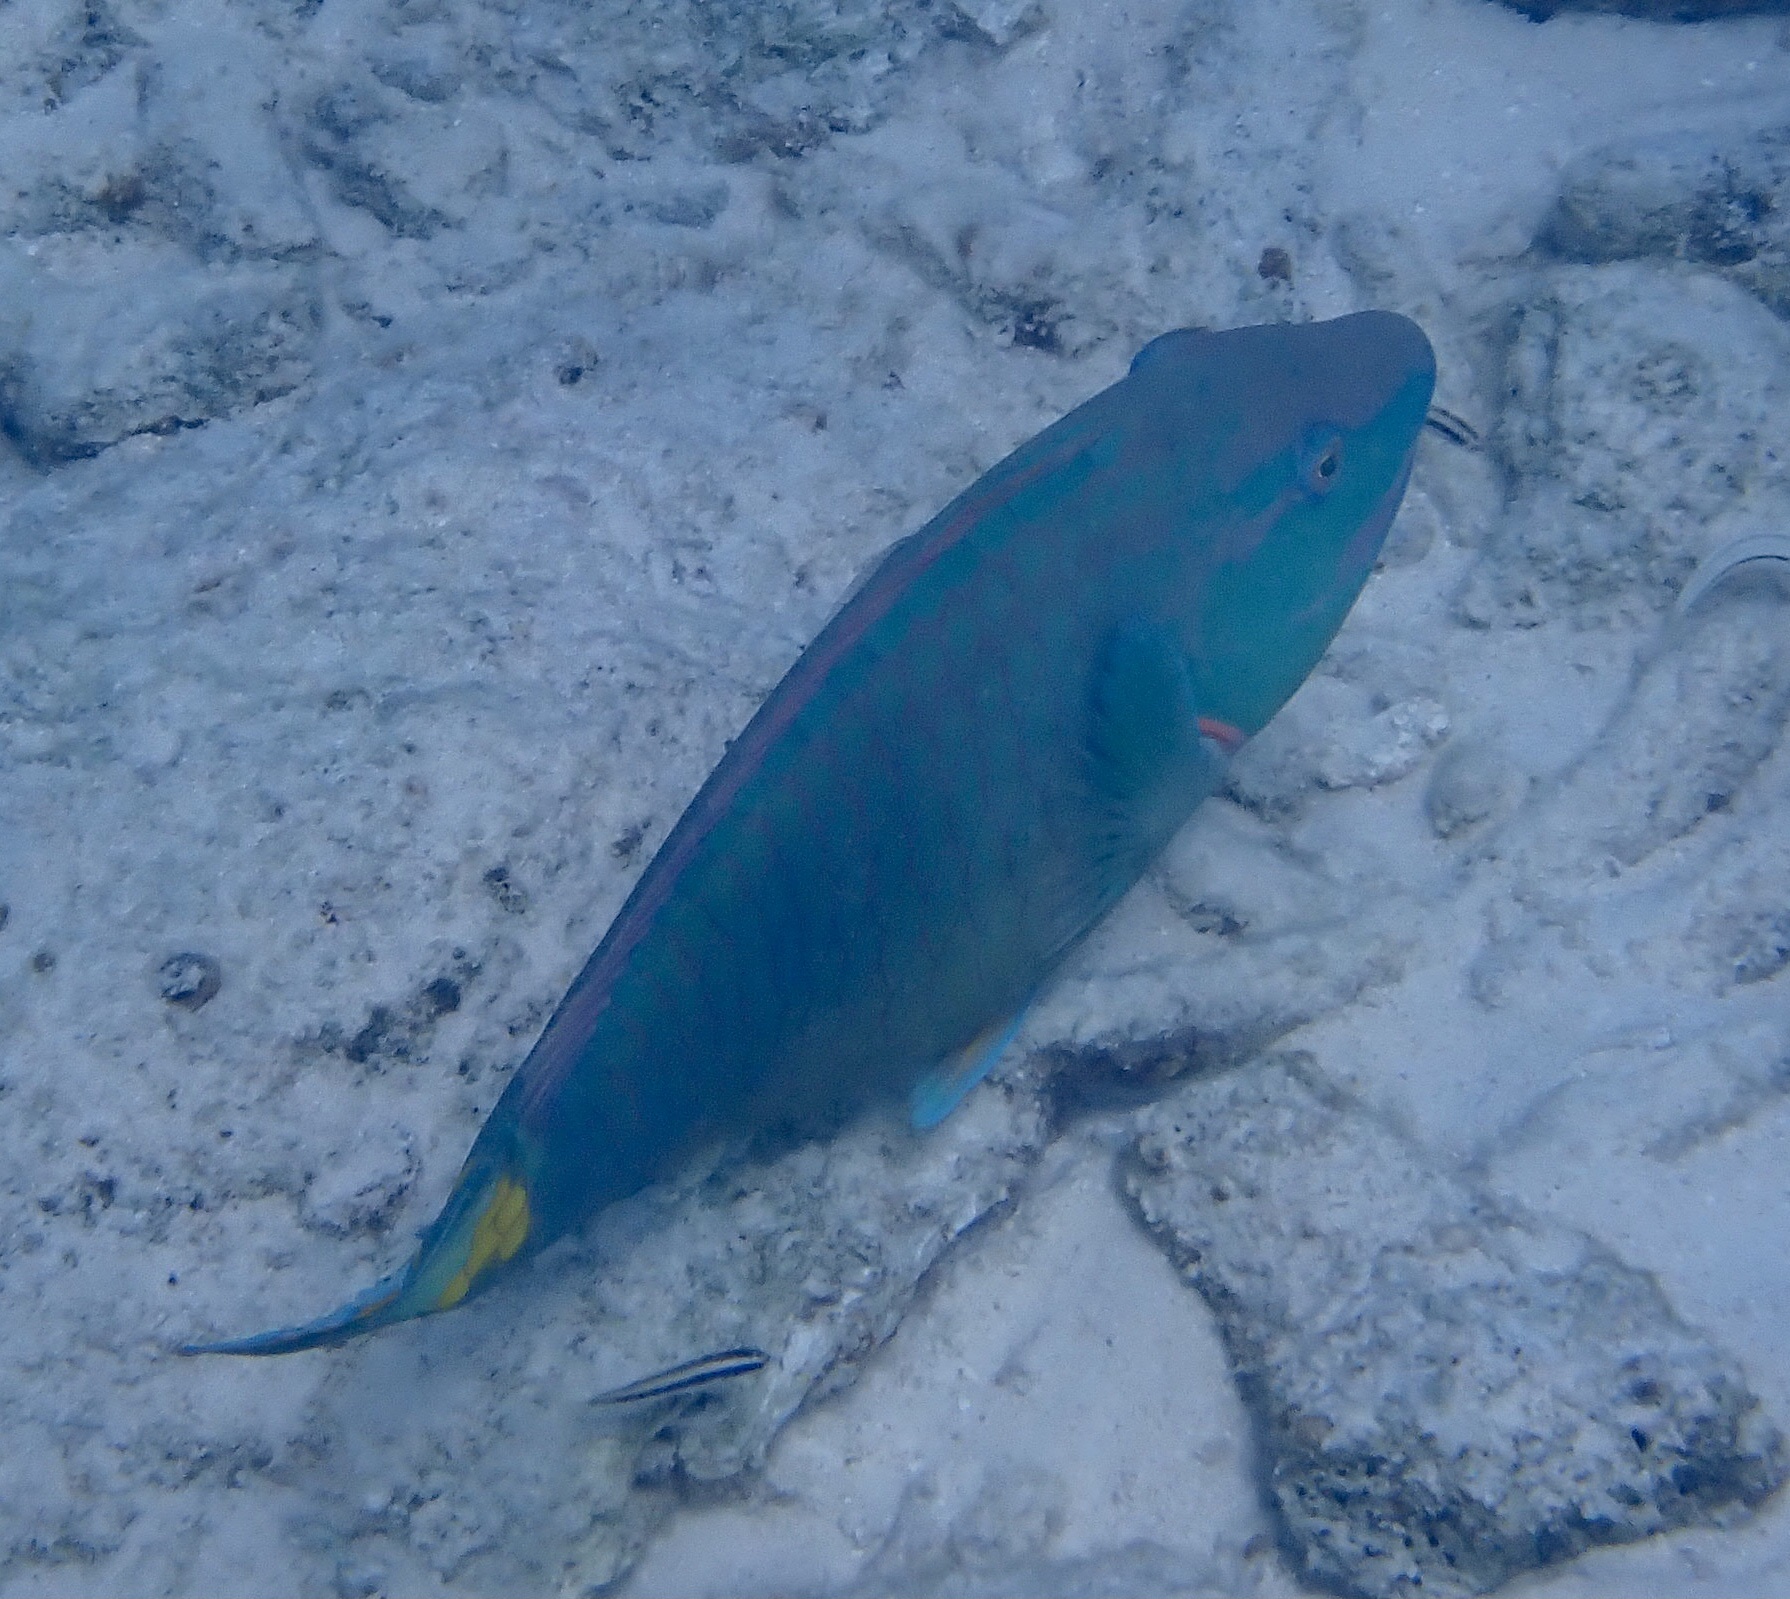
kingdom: Animalia
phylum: Chordata
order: Perciformes
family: Scaridae
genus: Sparisoma
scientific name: Sparisoma viride
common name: Stoplight parrotfish
